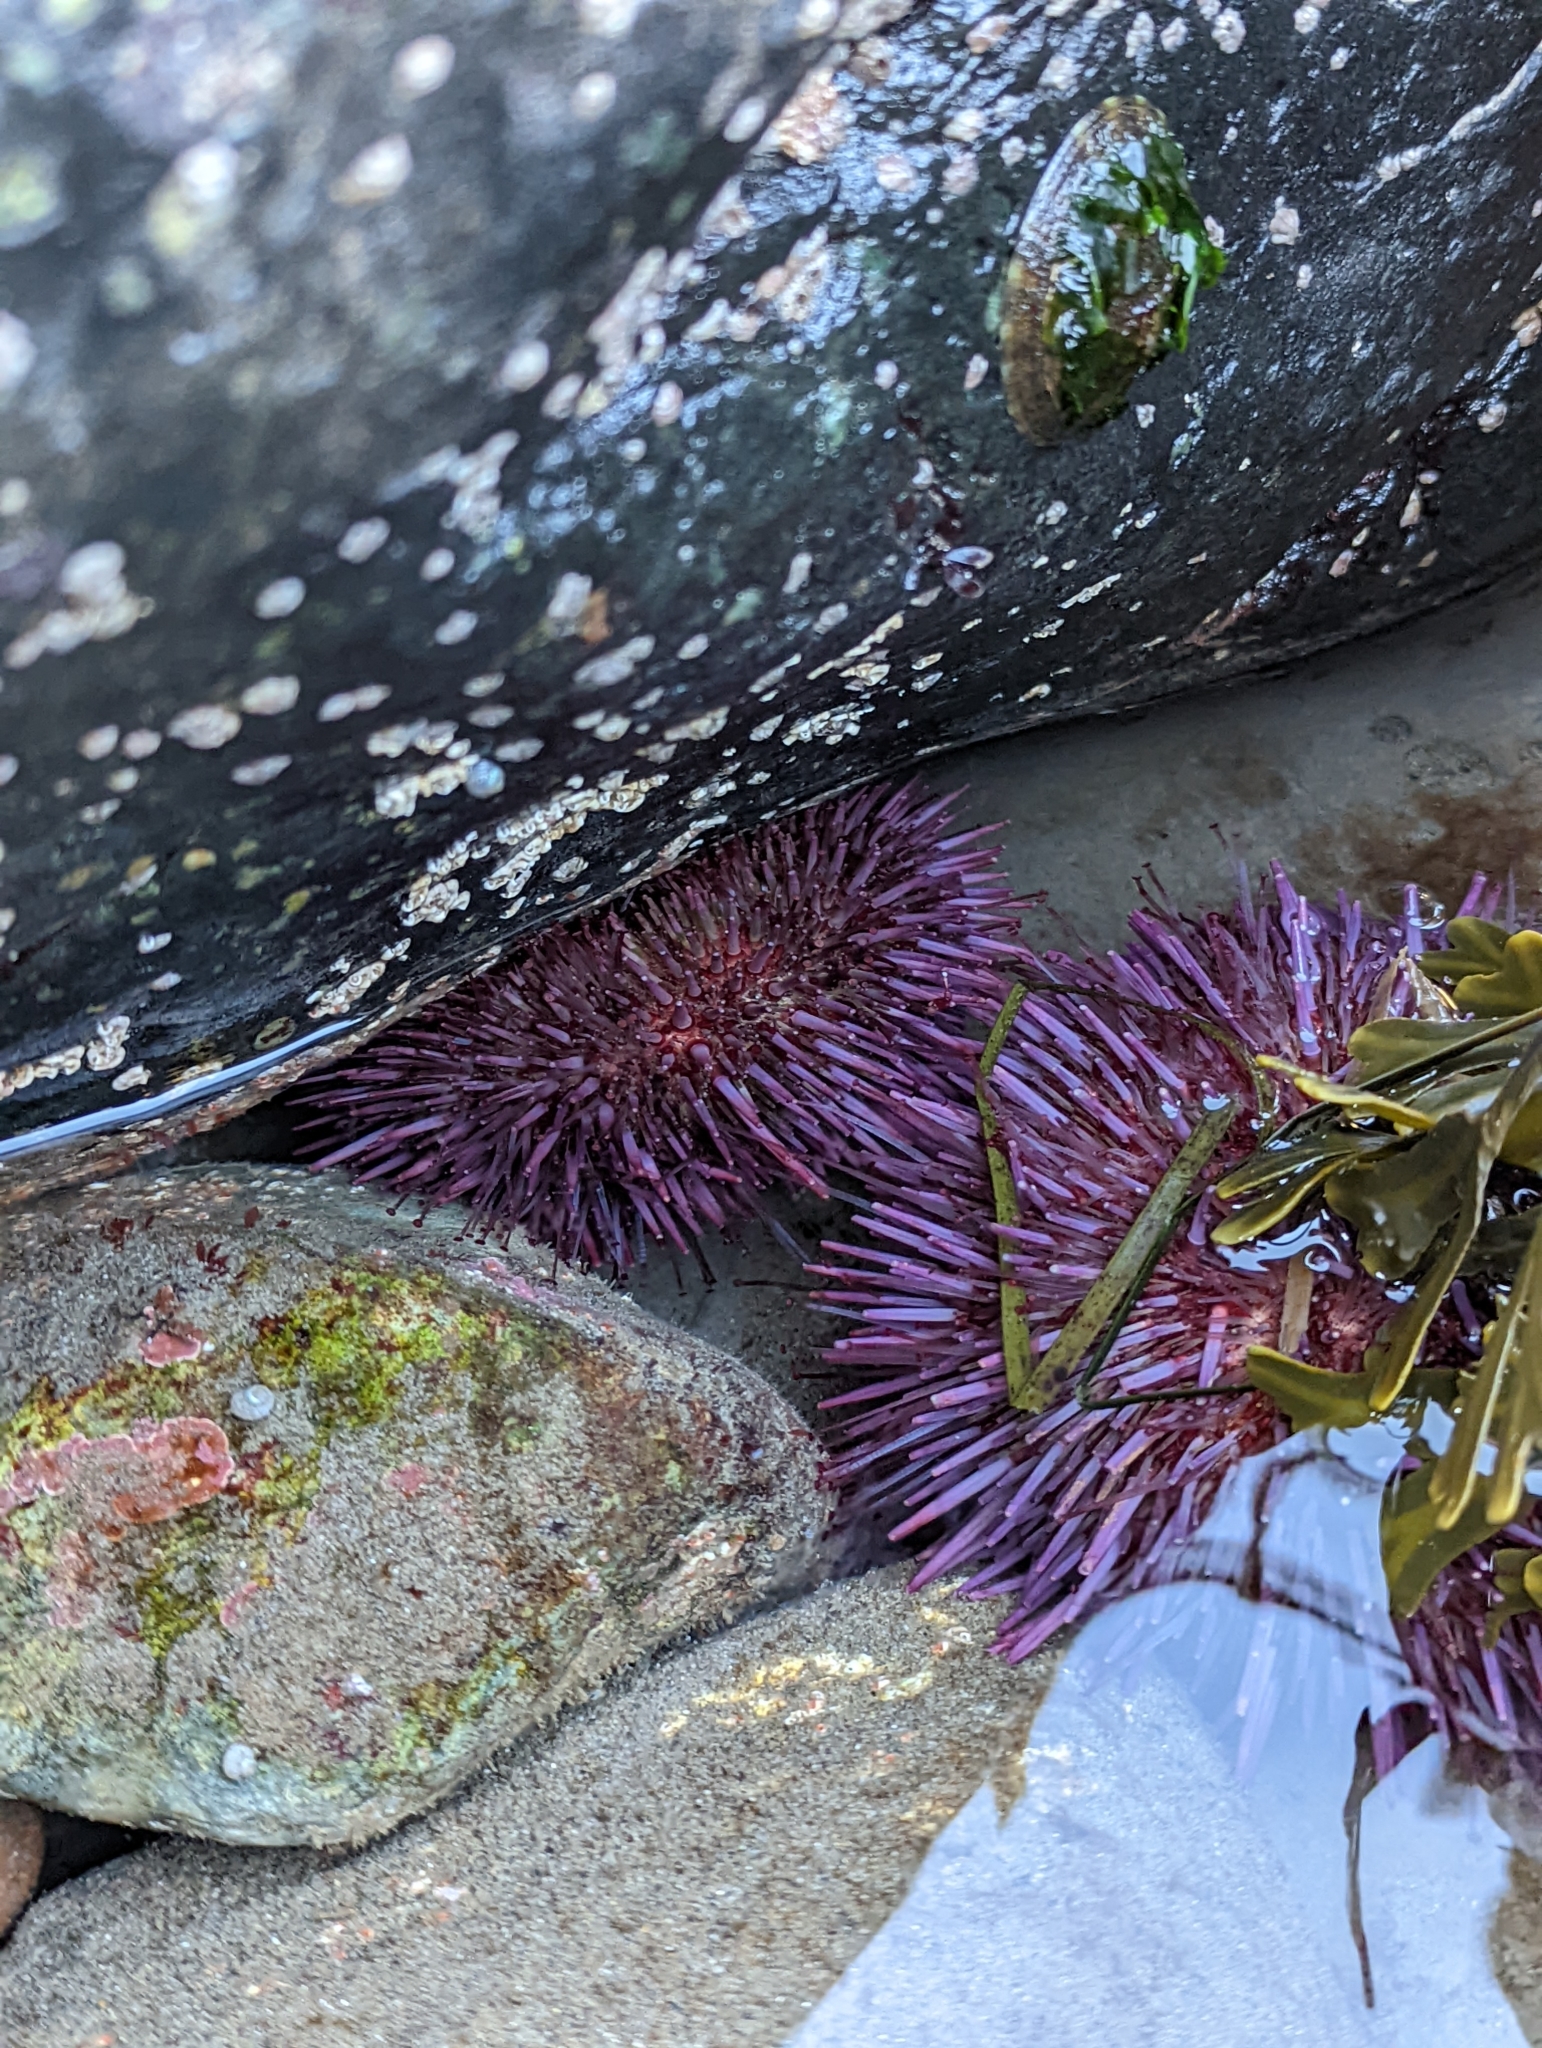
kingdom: Animalia
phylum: Echinodermata
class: Echinoidea
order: Camarodonta
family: Strongylocentrotidae
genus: Strongylocentrotus
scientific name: Strongylocentrotus purpuratus
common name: Purple sea urchin
